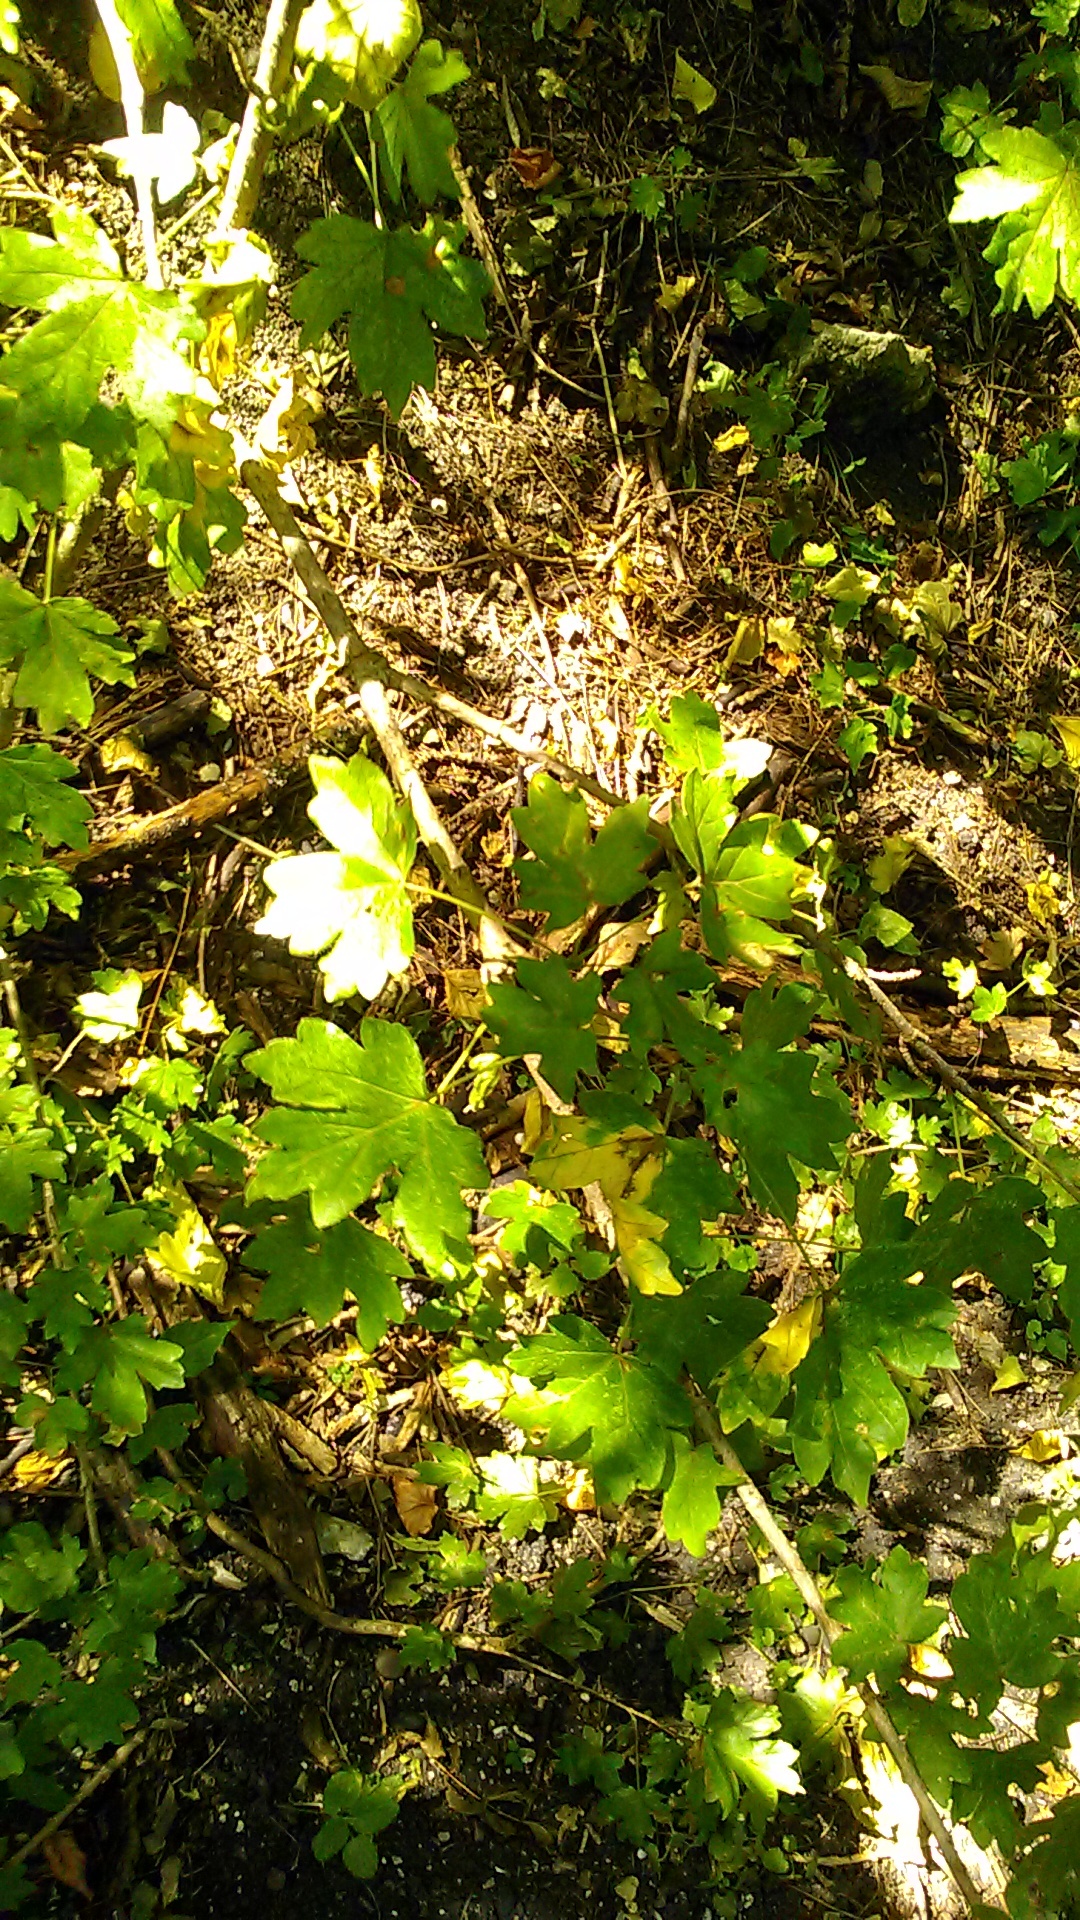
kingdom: Plantae
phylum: Tracheophyta
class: Magnoliopsida
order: Sapindales
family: Sapindaceae
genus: Acer
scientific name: Acer campestre
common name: Field maple
